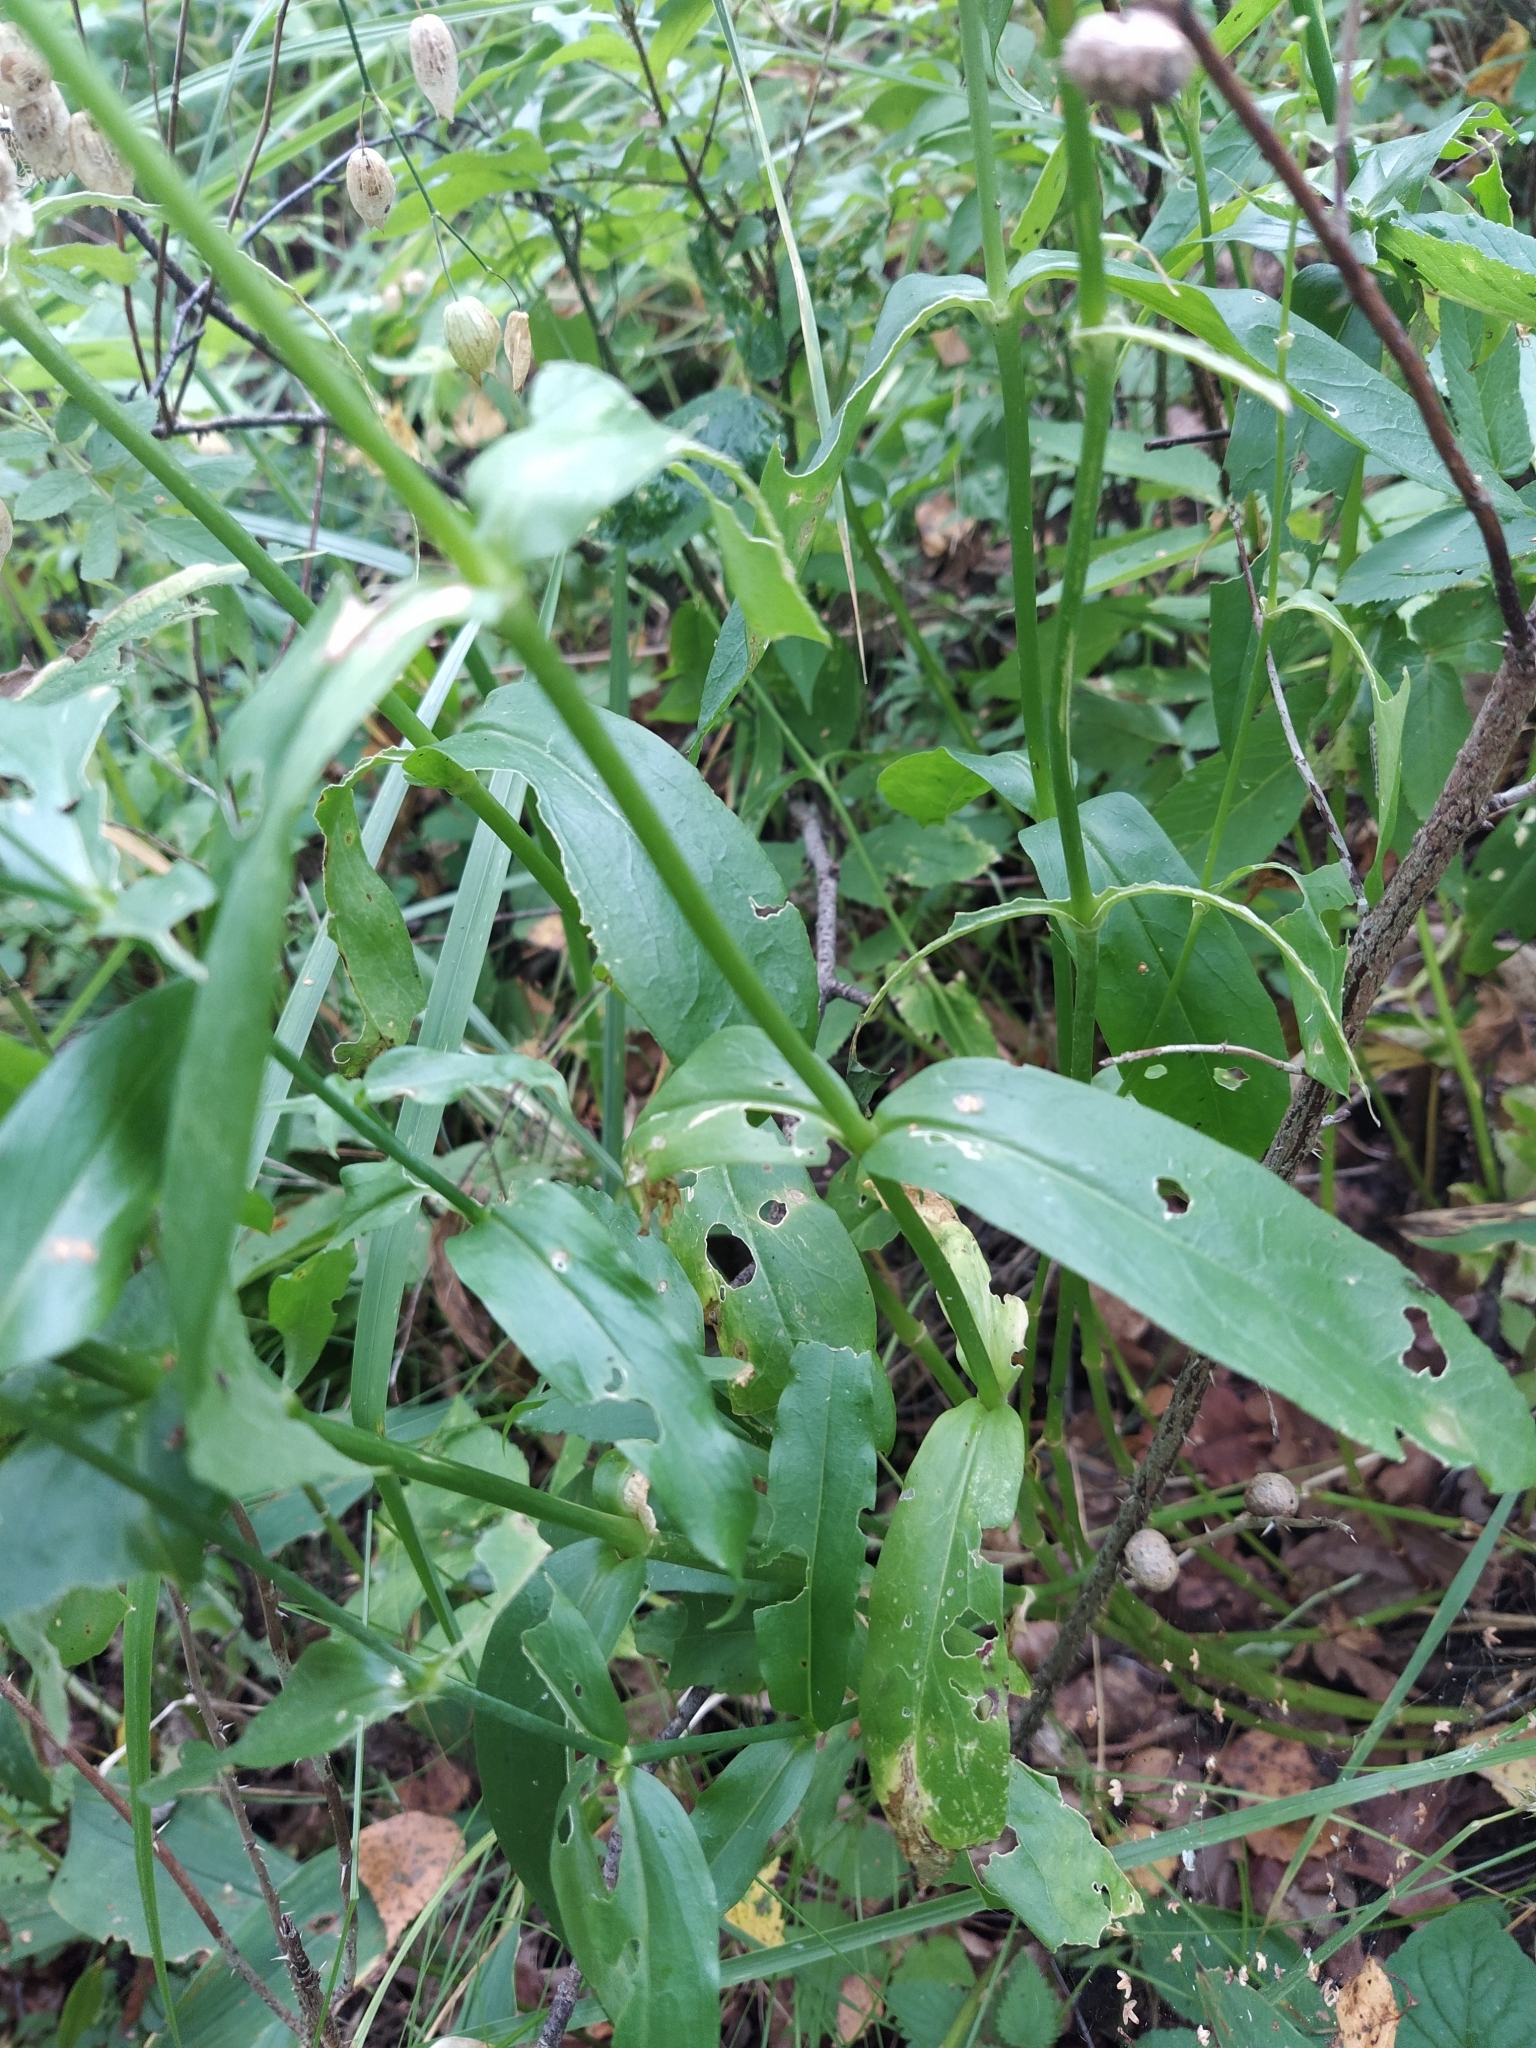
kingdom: Plantae
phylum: Tracheophyta
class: Magnoliopsida
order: Caryophyllales
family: Caryophyllaceae
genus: Silene
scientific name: Silene vulgaris
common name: Bladder campion
